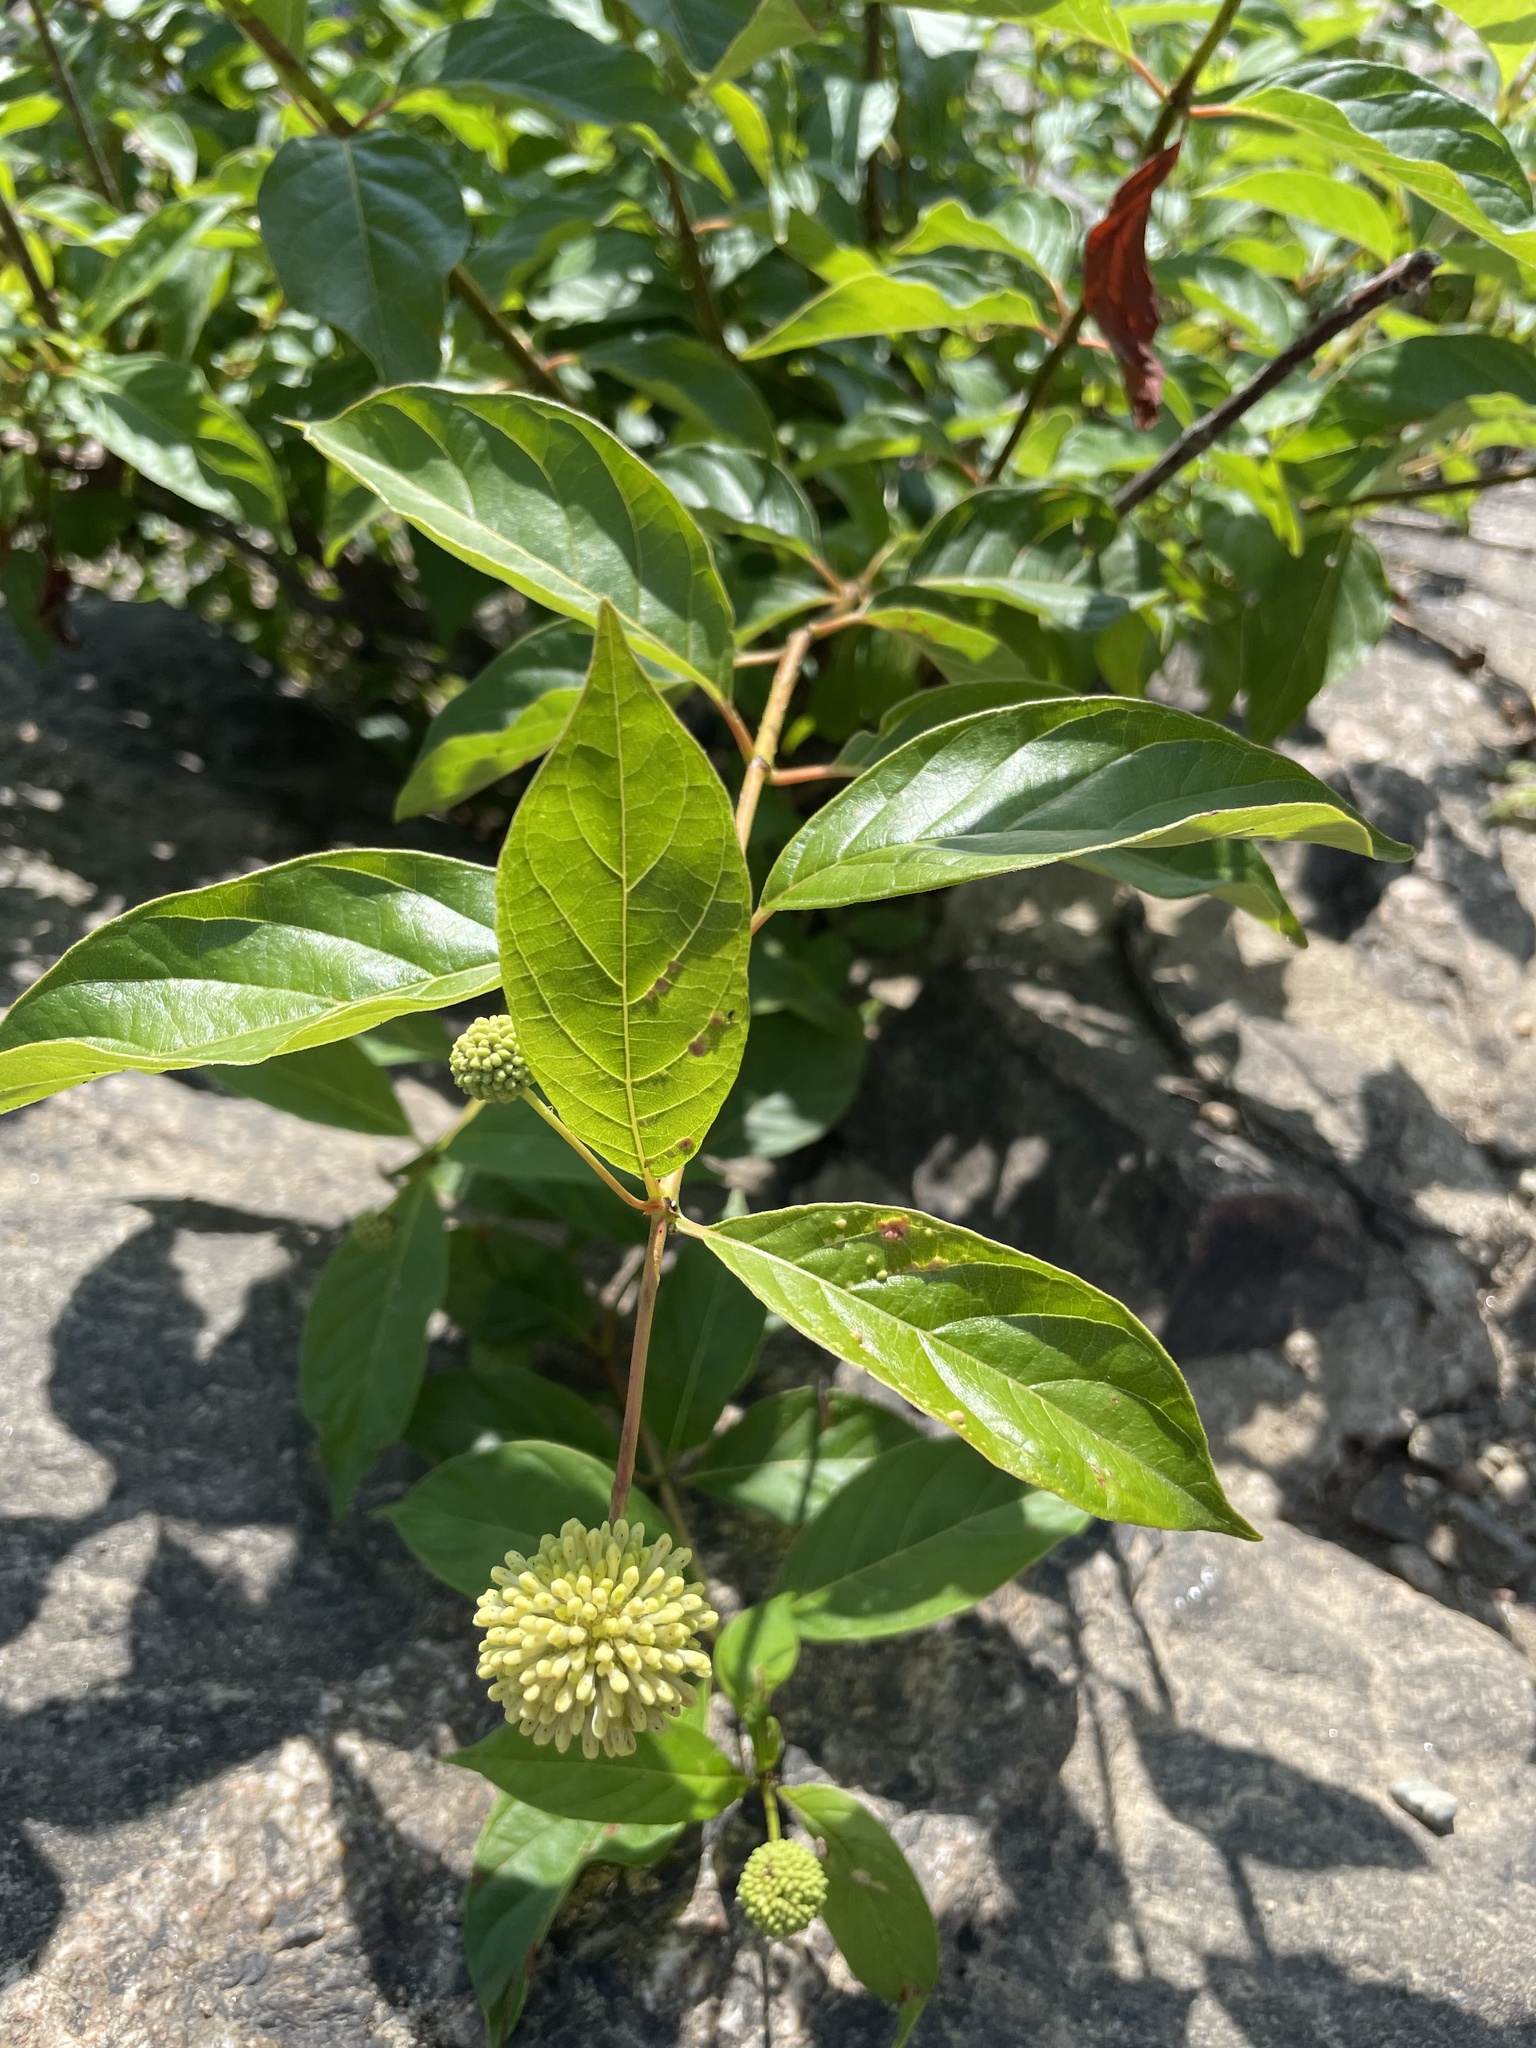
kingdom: Plantae
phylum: Tracheophyta
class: Magnoliopsida
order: Gentianales
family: Rubiaceae
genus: Cephalanthus
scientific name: Cephalanthus occidentalis
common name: Button-willow
